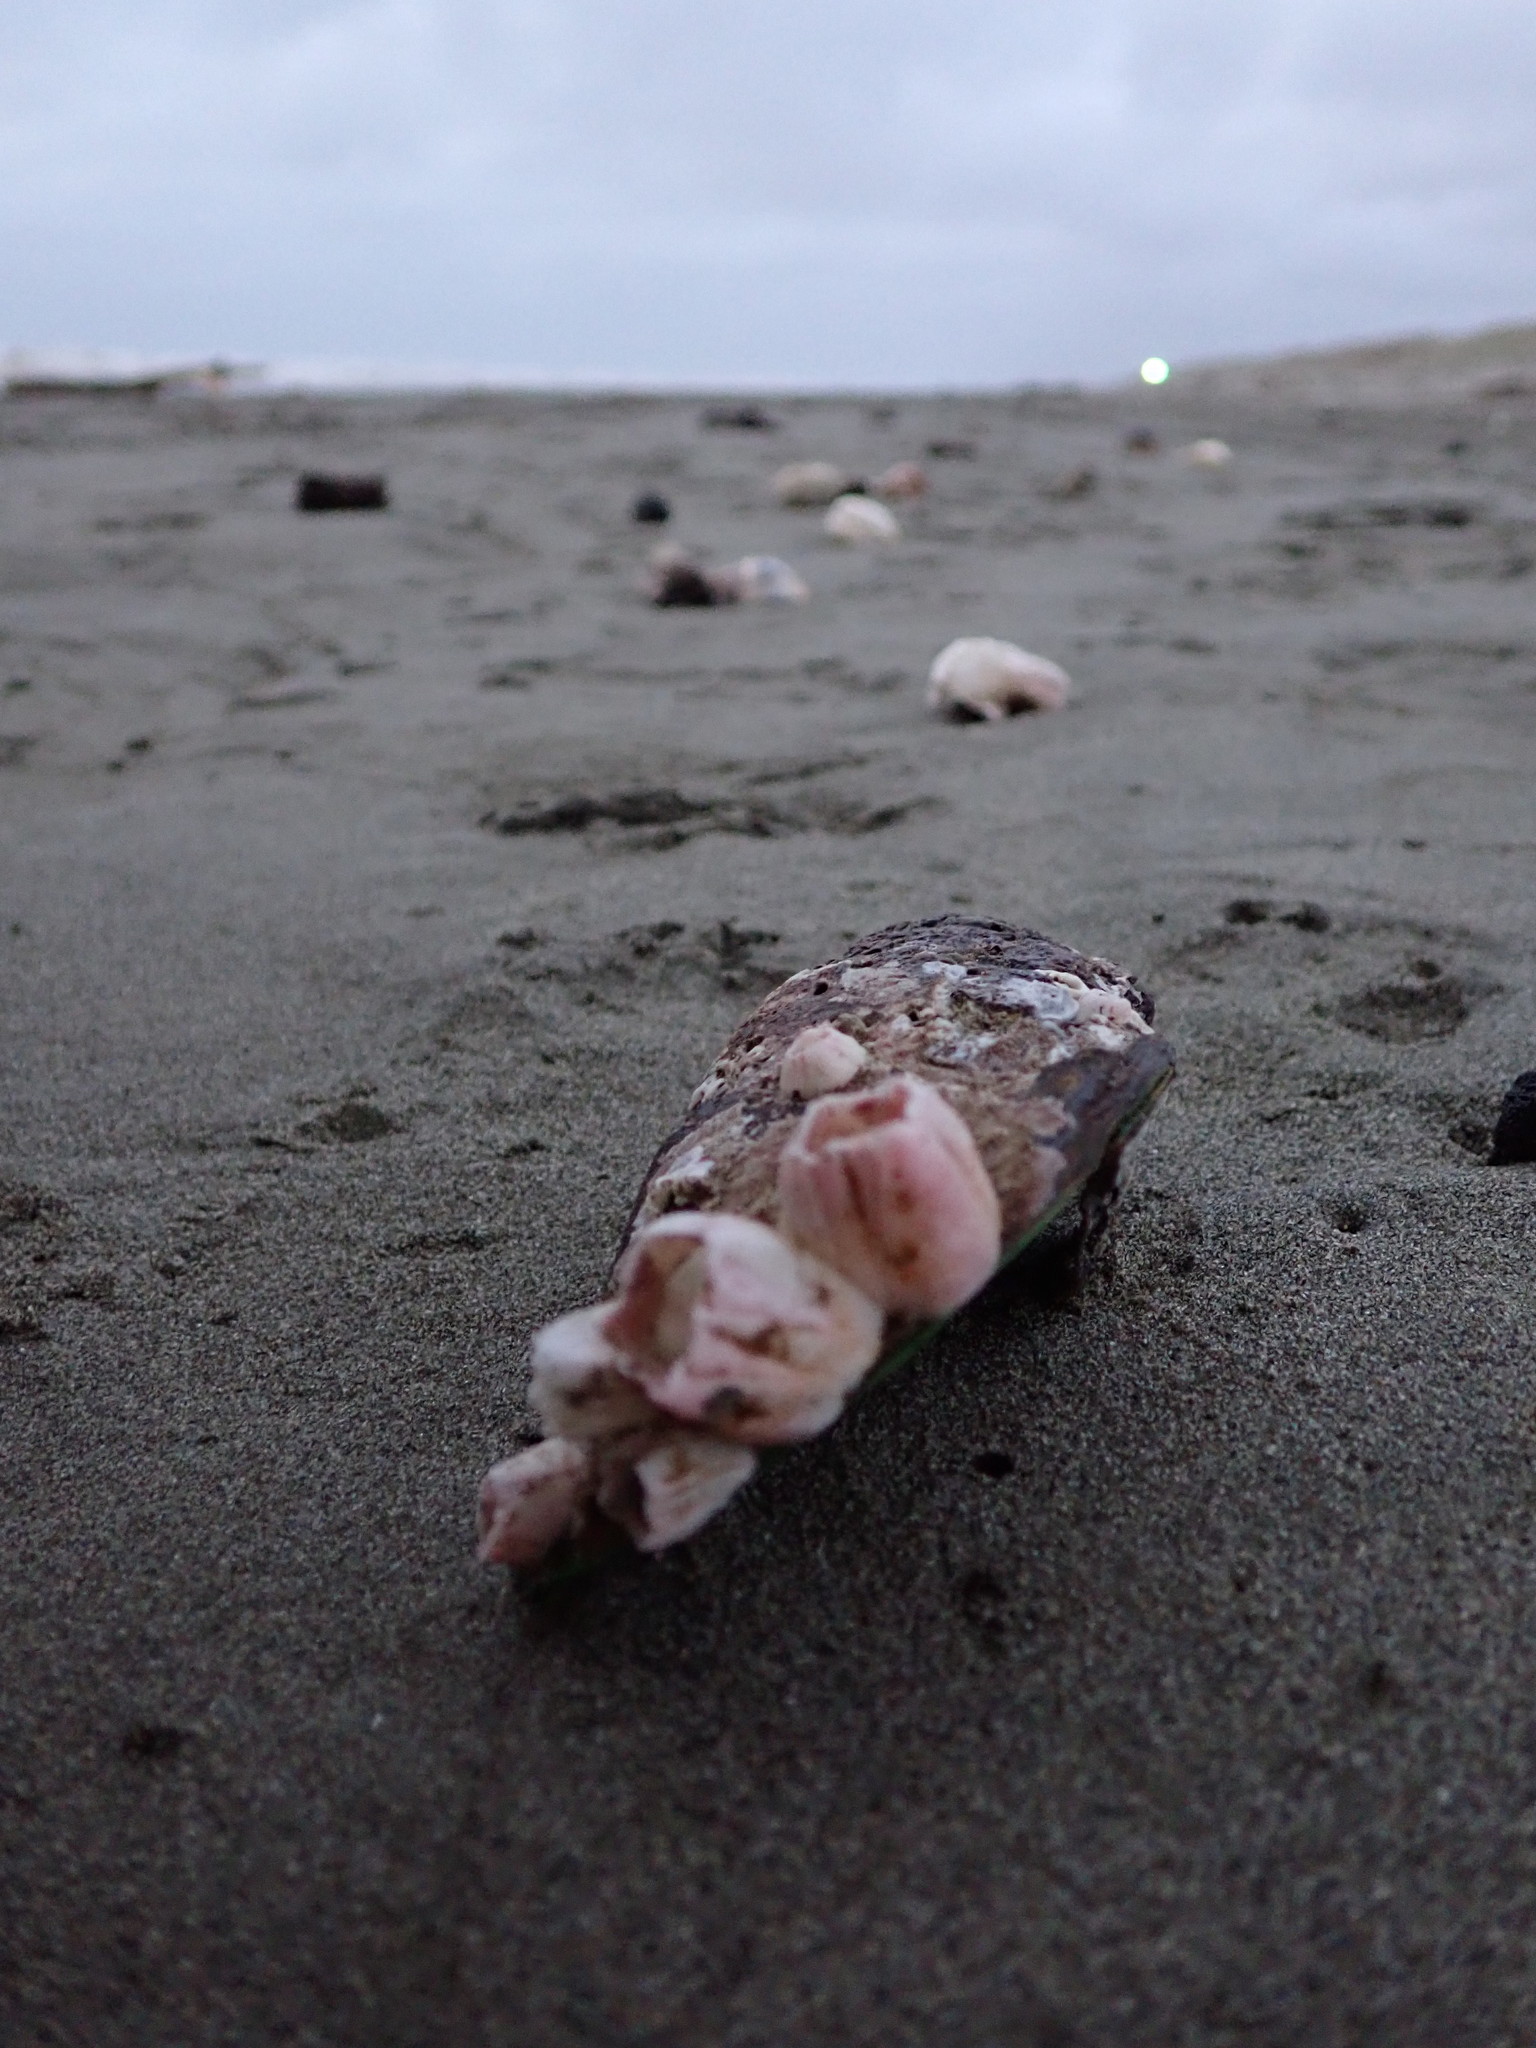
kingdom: Animalia
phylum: Arthropoda
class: Maxillopoda
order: Sessilia
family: Balanidae
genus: Notomegabalanus
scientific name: Notomegabalanus decorus
